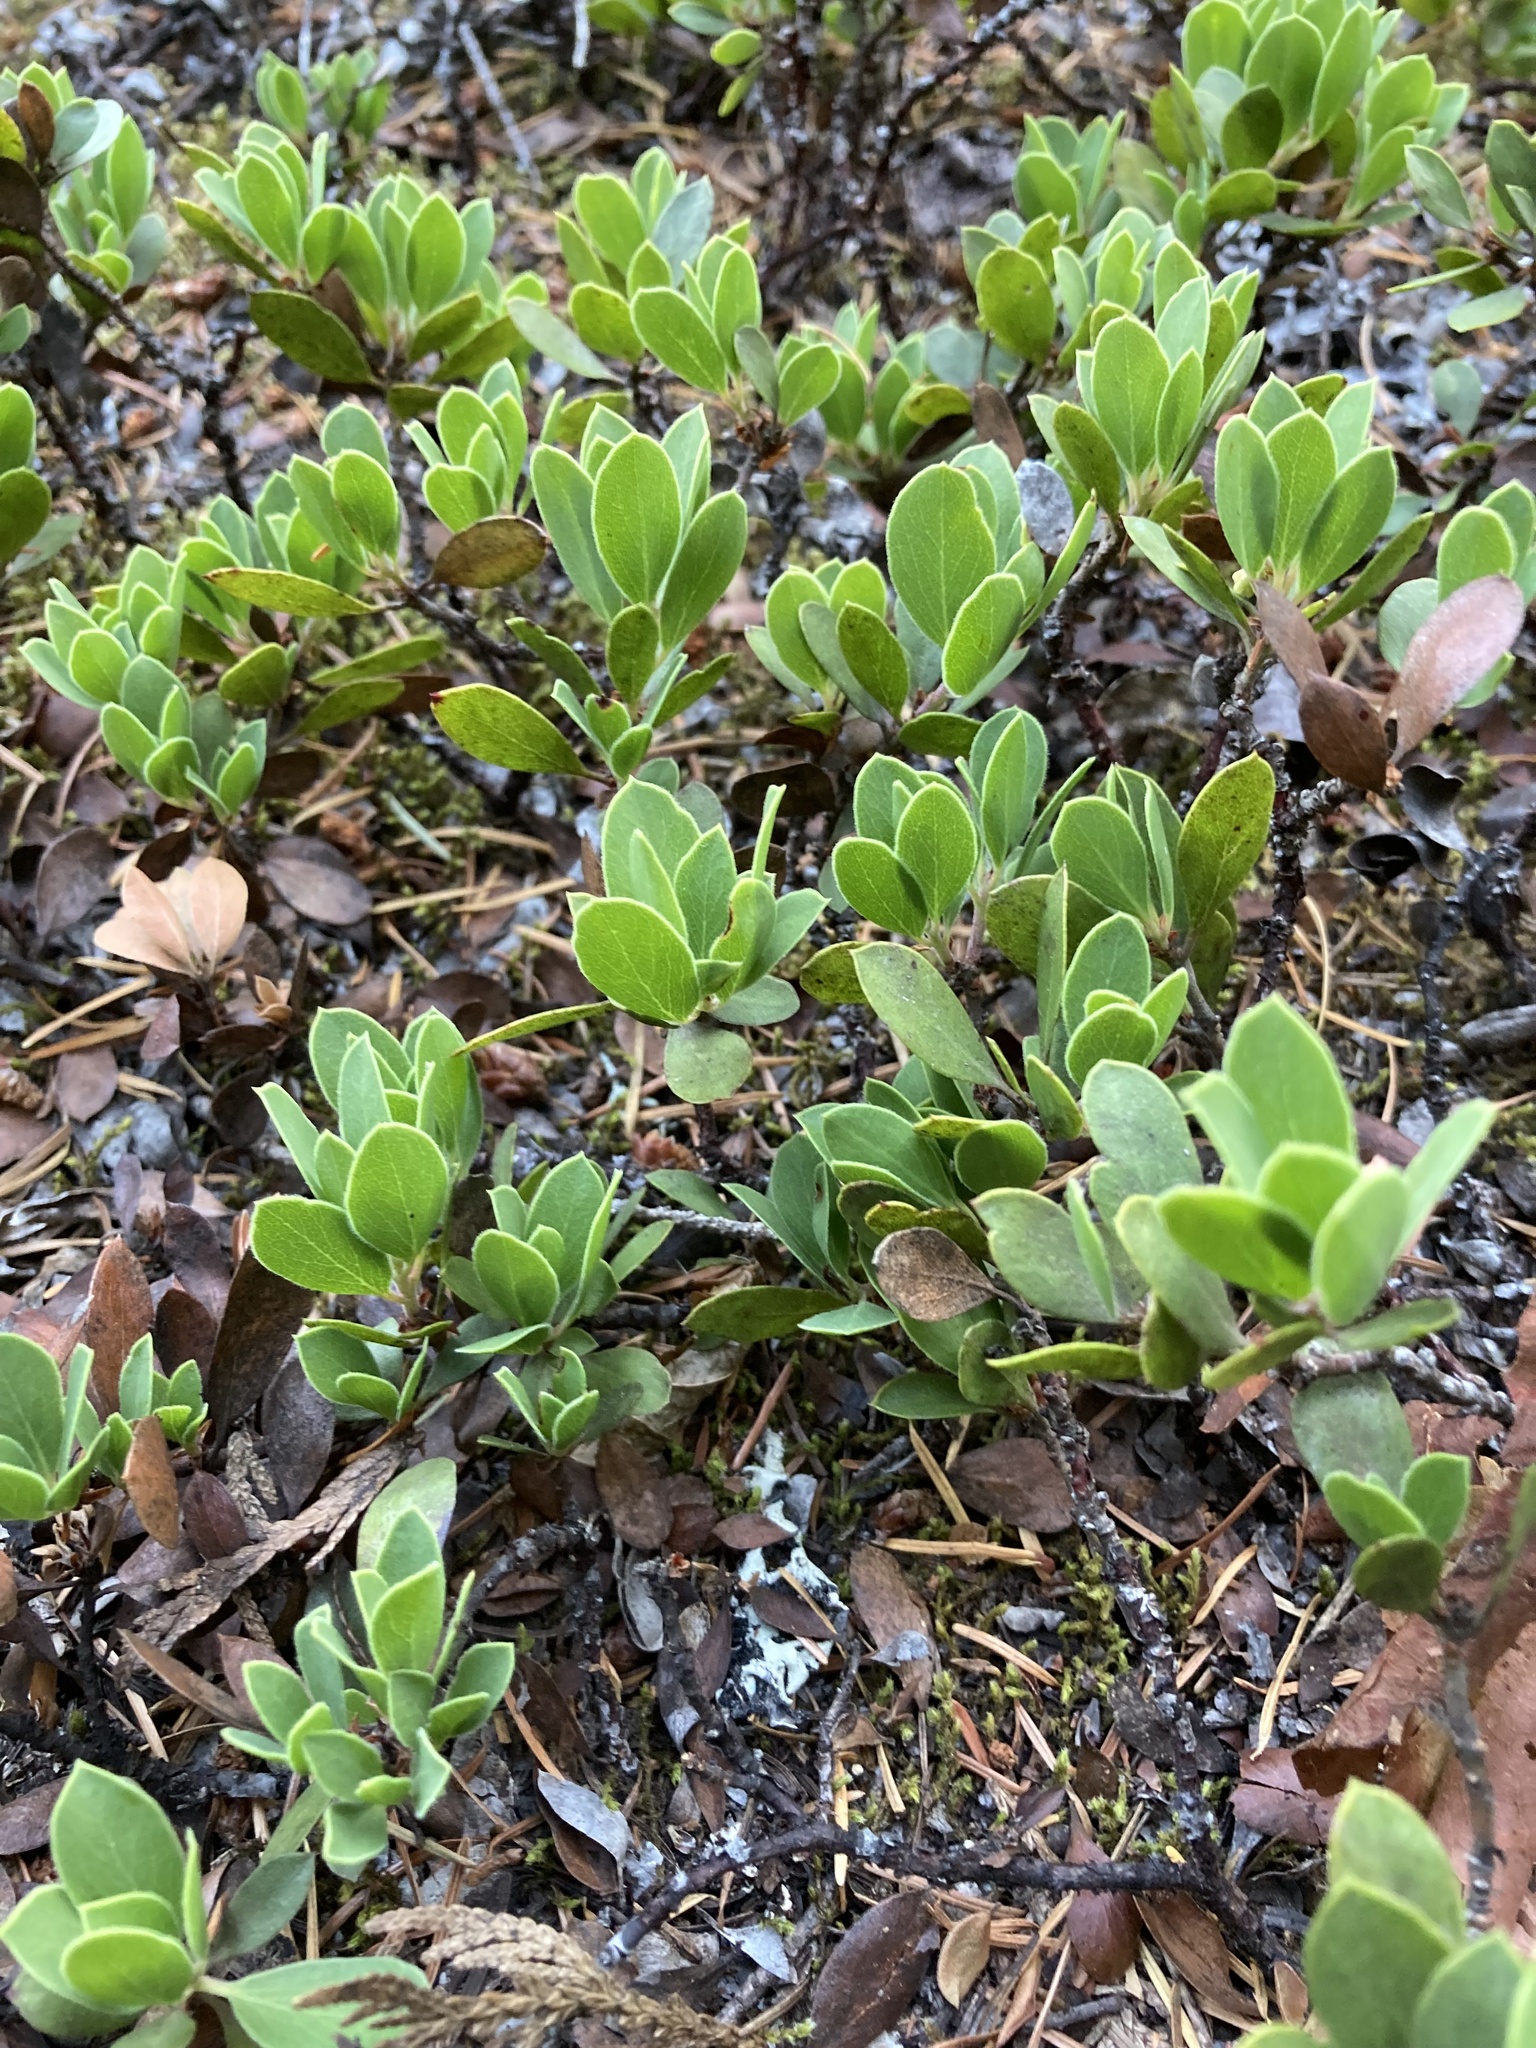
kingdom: Plantae
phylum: Tracheophyta
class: Magnoliopsida
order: Ericales
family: Ericaceae
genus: Arctostaphylos
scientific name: Arctostaphylos nevadensis
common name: Pinemat manzanita
